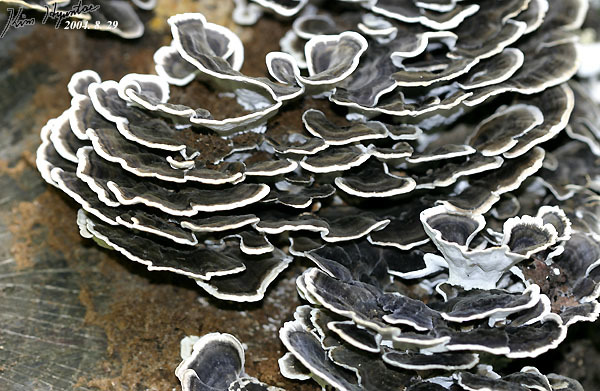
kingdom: Fungi
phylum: Basidiomycota
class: Agaricomycetes
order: Polyporales
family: Polyporaceae
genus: Trametes
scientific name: Trametes versicolor
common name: Turkeytail
